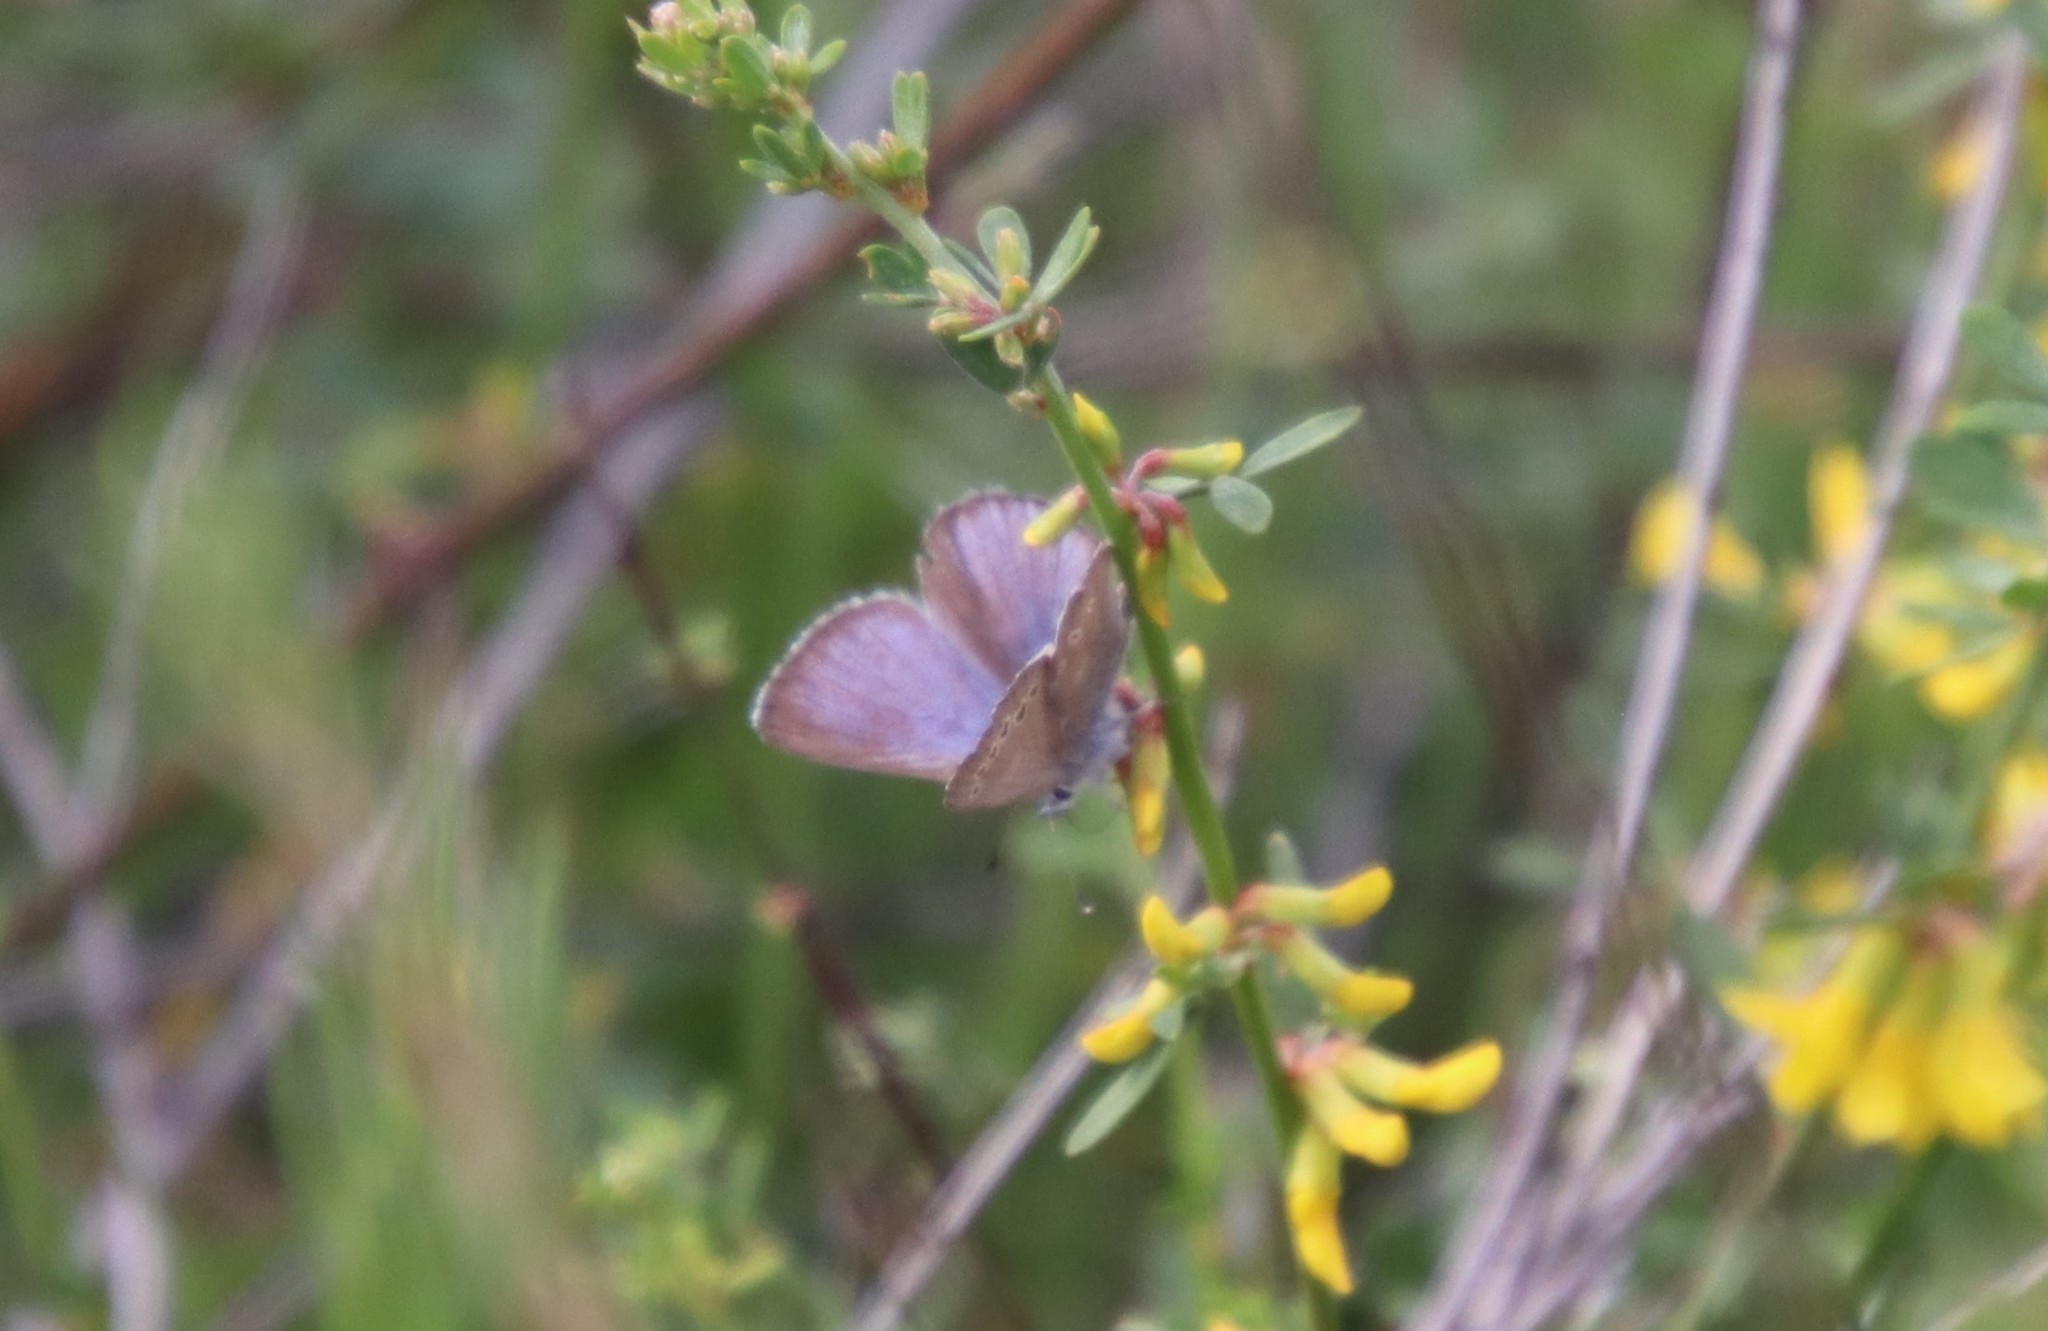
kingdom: Animalia
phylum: Arthropoda
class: Insecta
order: Lepidoptera
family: Lycaenidae
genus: Glaucopsyche
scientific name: Glaucopsyche lygdamus
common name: Silvery blue
